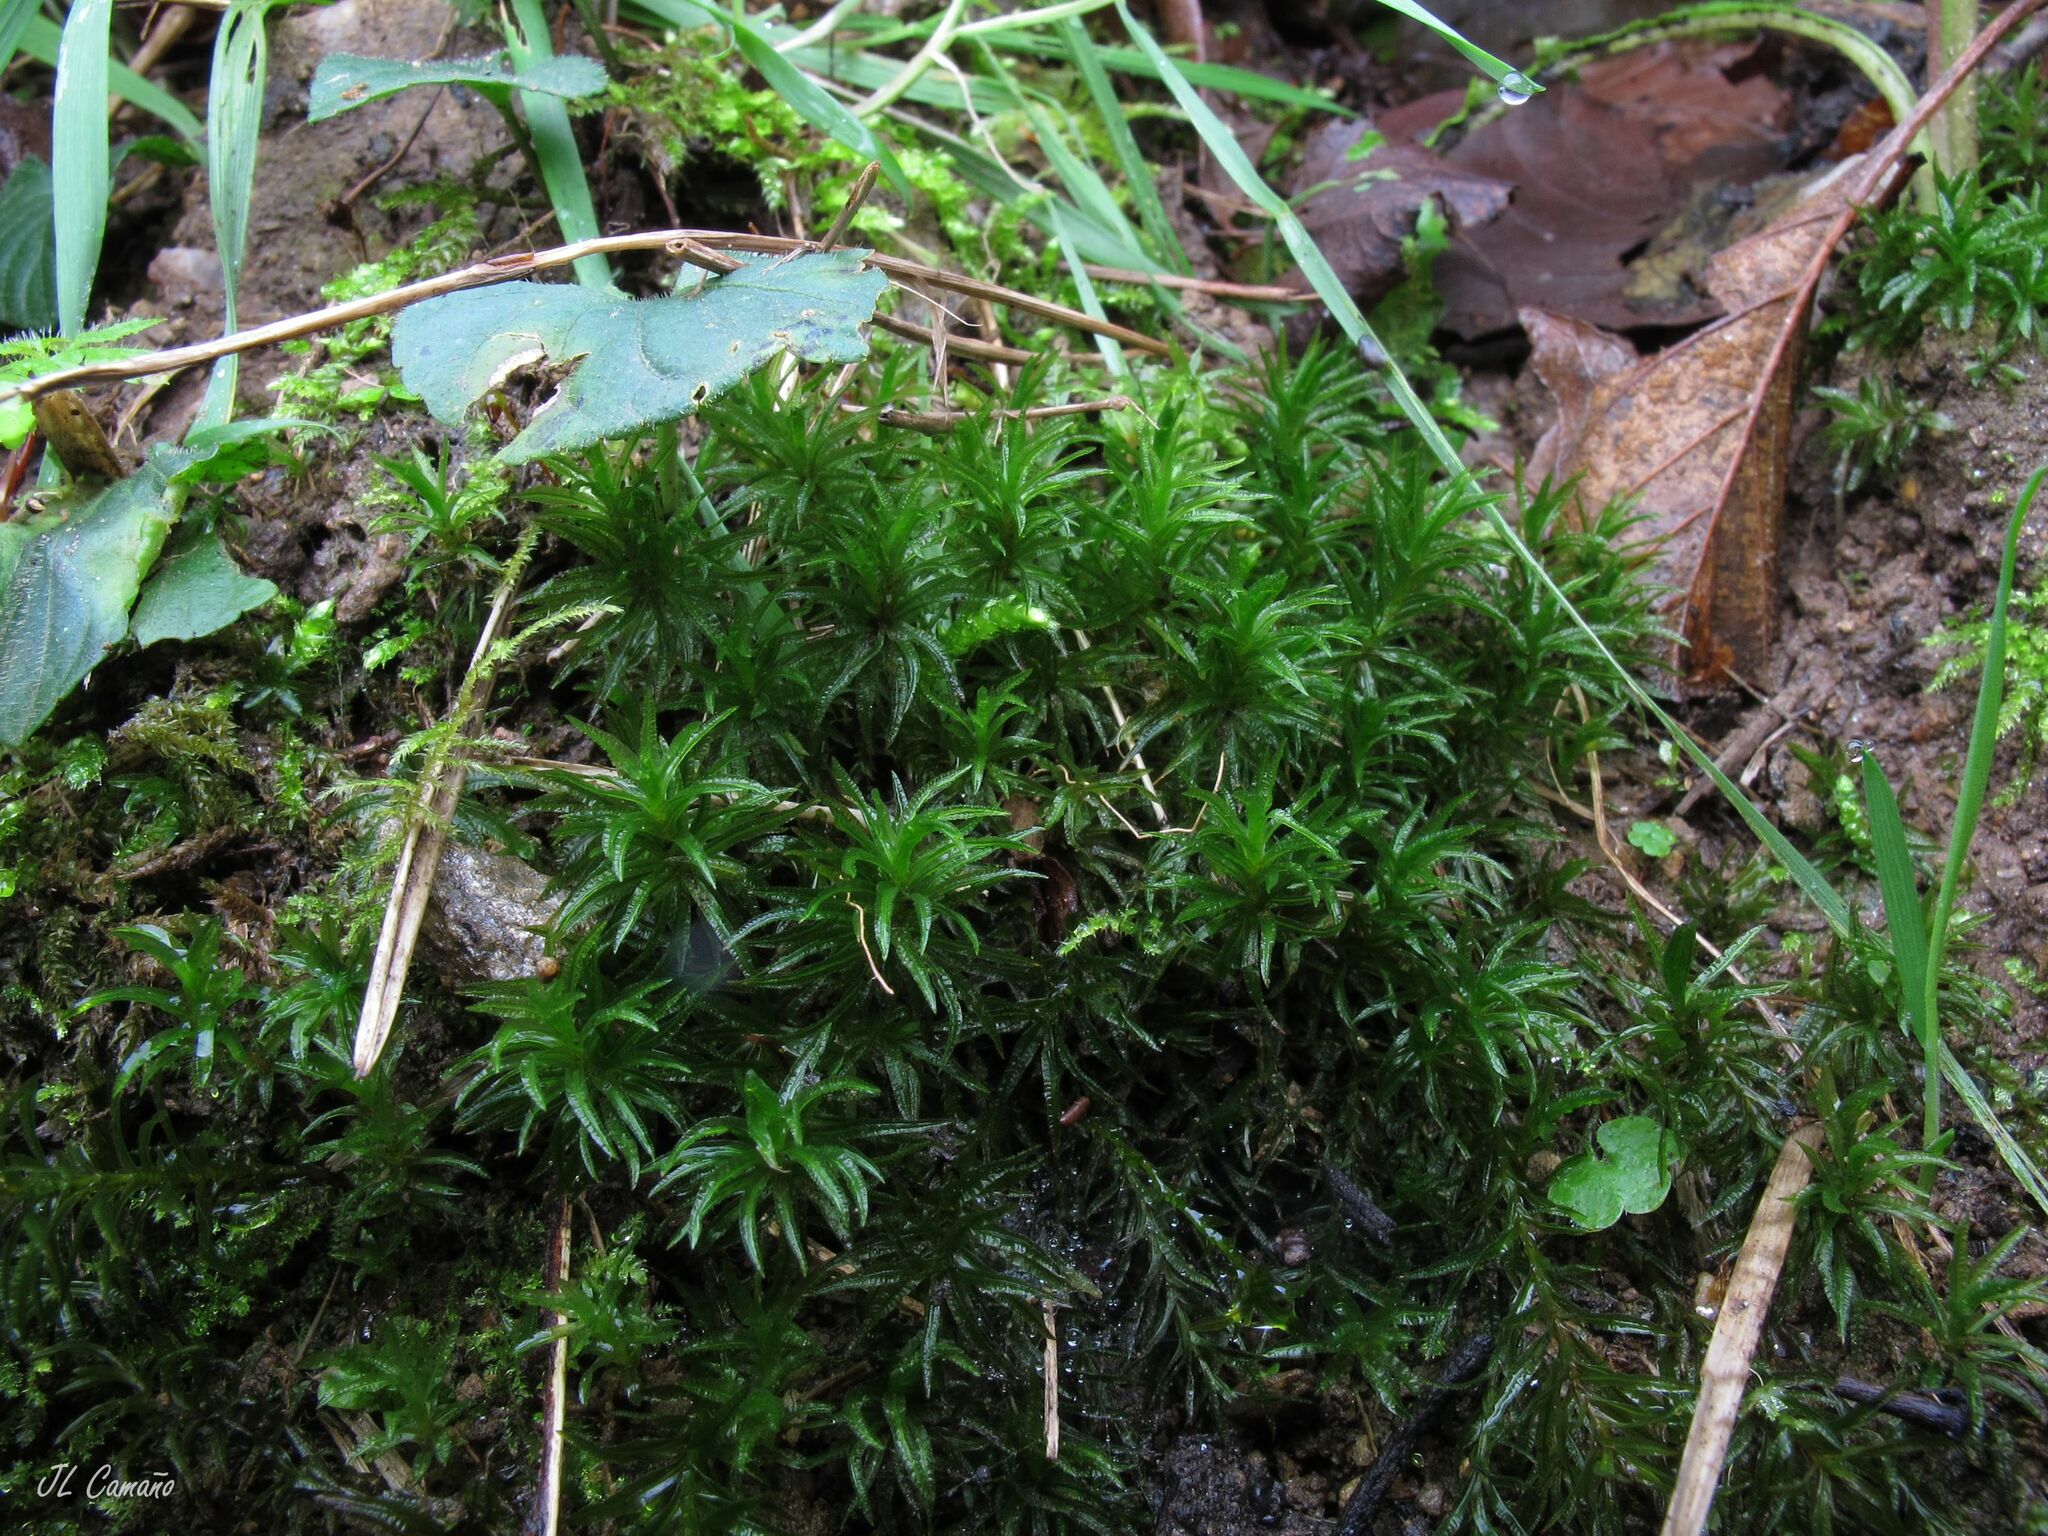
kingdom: Plantae
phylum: Bryophyta
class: Polytrichopsida
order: Polytrichales
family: Polytrichaceae
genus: Atrichum
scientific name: Atrichum undulatum
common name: Common smoothcap
